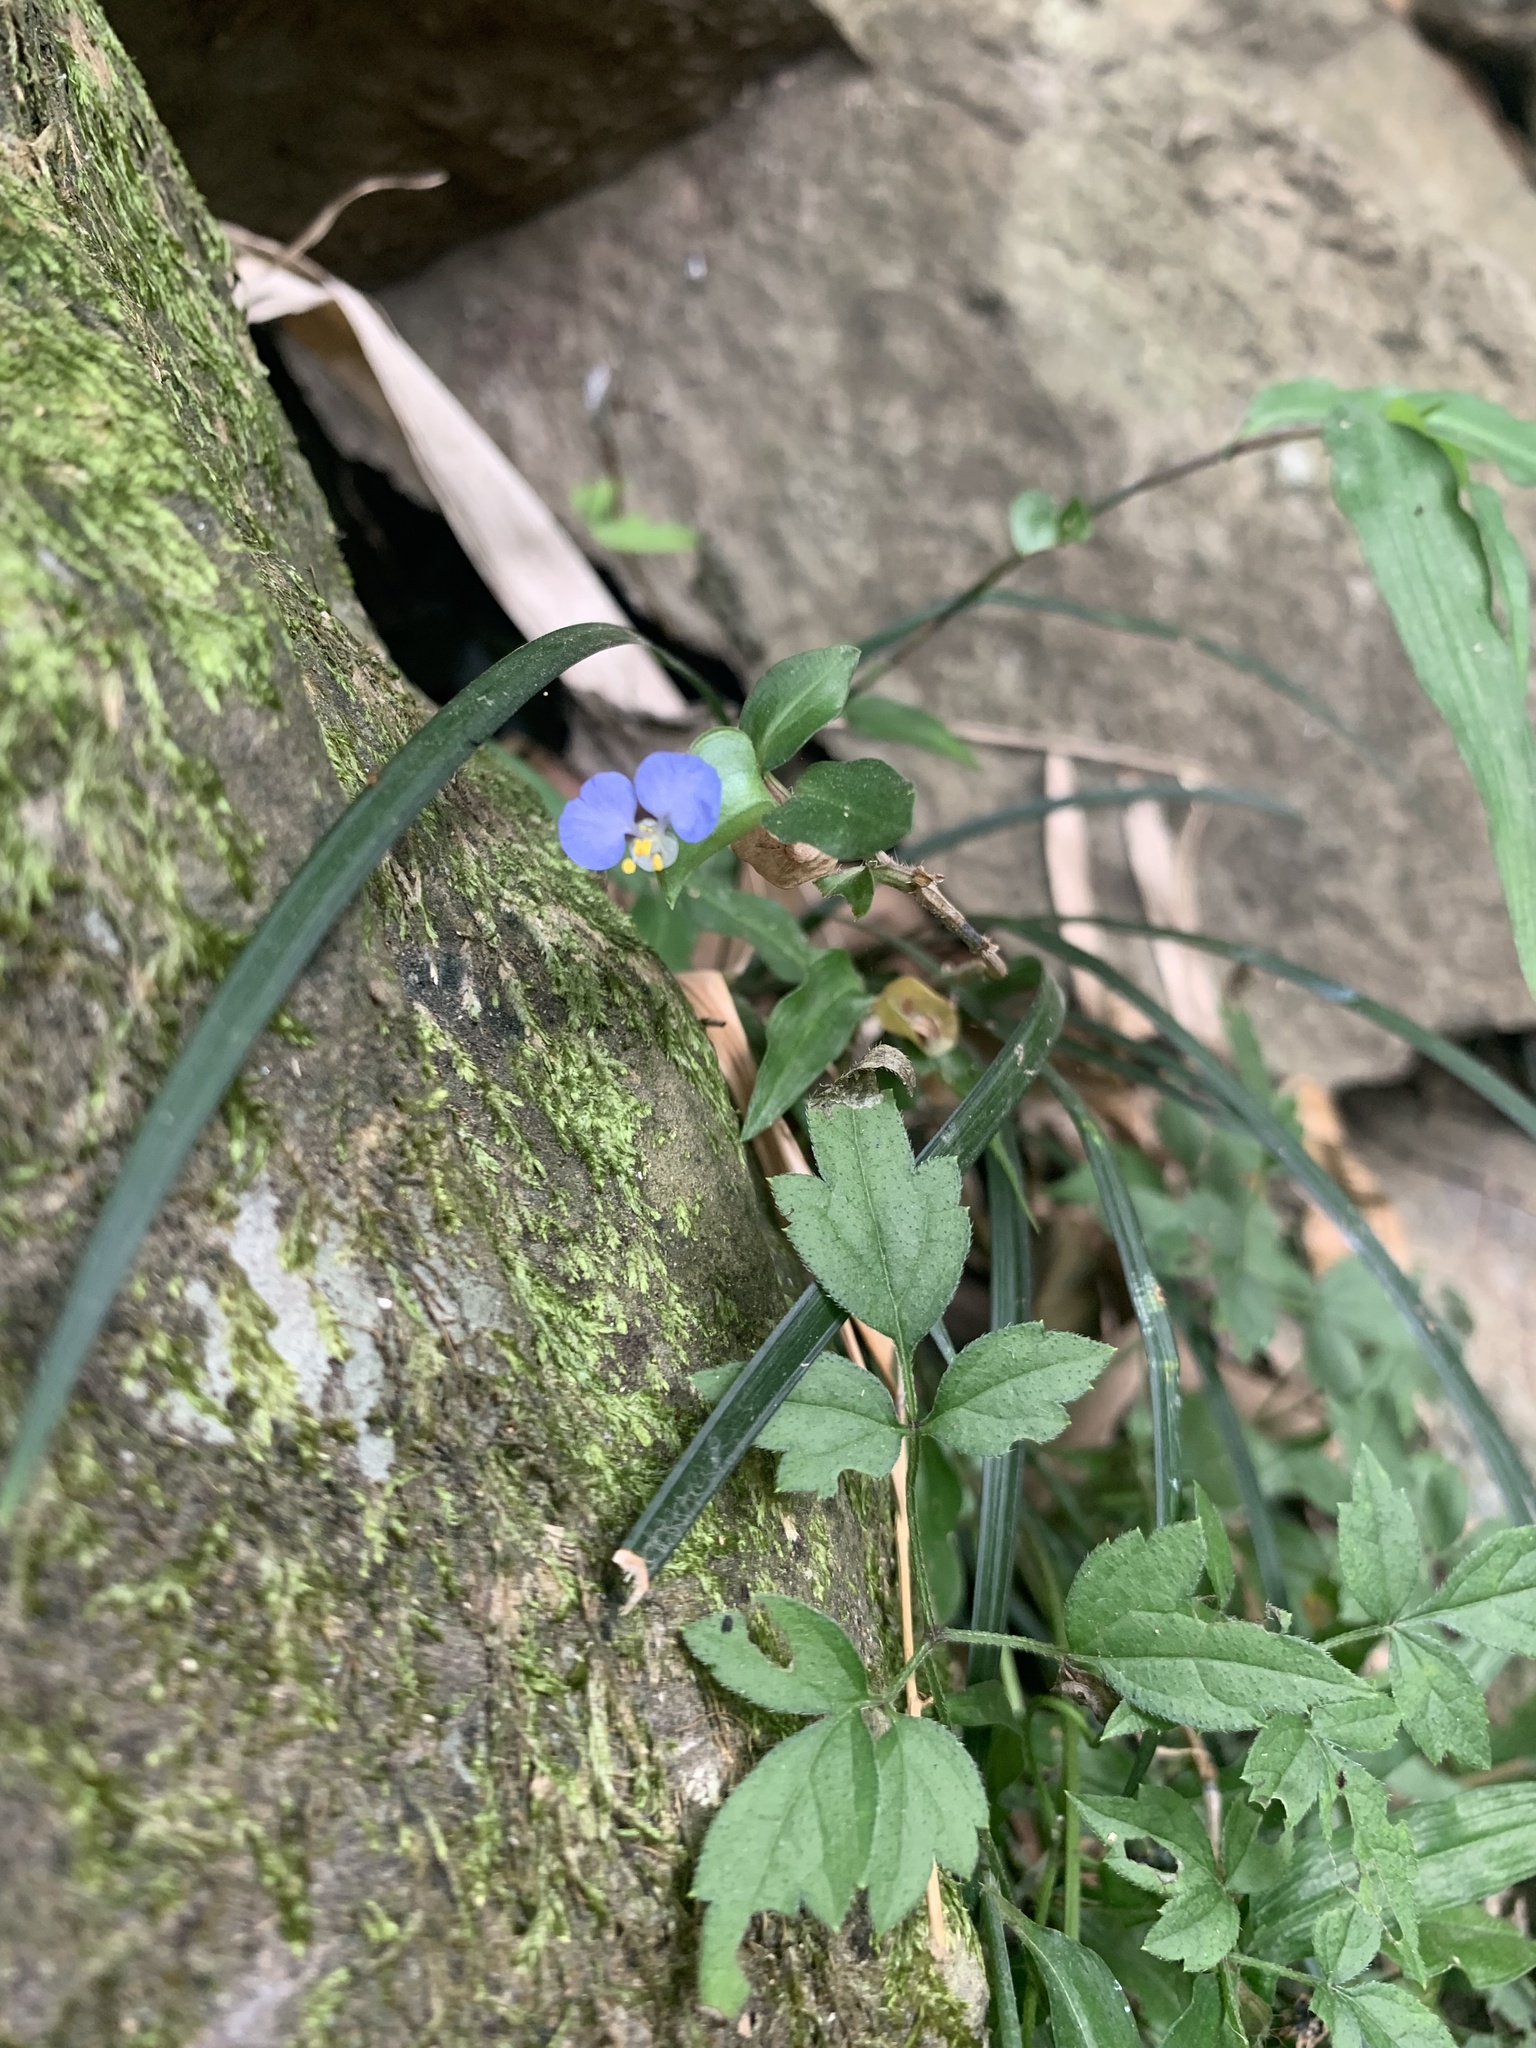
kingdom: Plantae
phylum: Tracheophyta
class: Liliopsida
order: Commelinales
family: Commelinaceae
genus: Commelina
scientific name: Commelina auriculata
